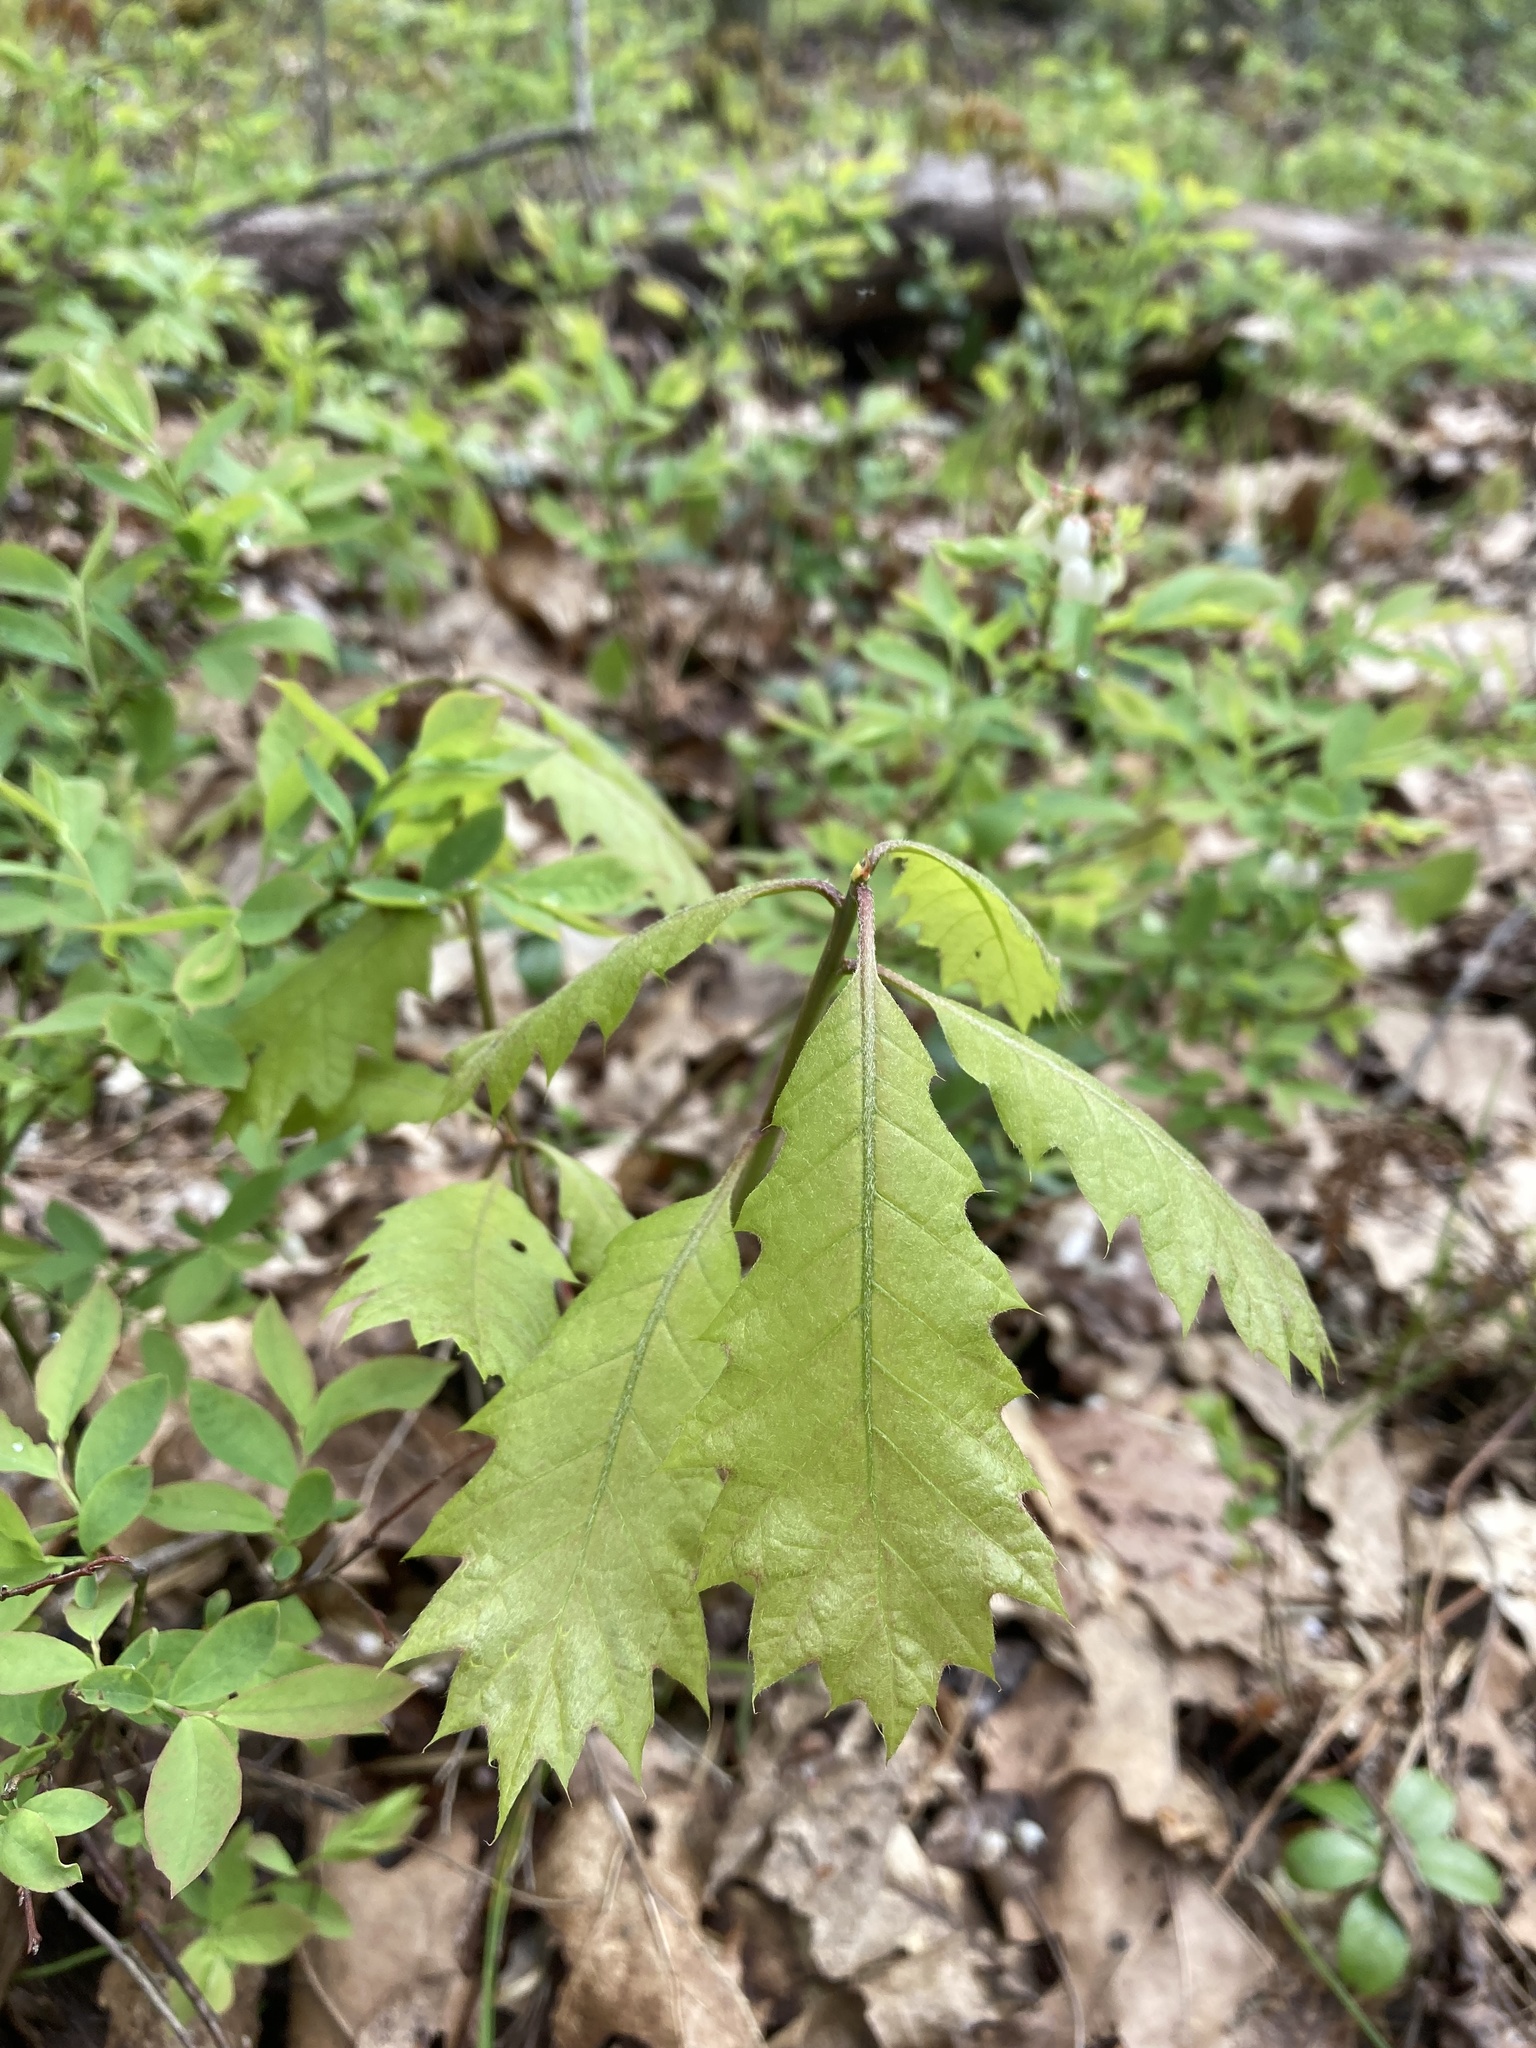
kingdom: Plantae
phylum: Tracheophyta
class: Magnoliopsida
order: Fagales
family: Fagaceae
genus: Quercus
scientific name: Quercus rubra
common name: Red oak
